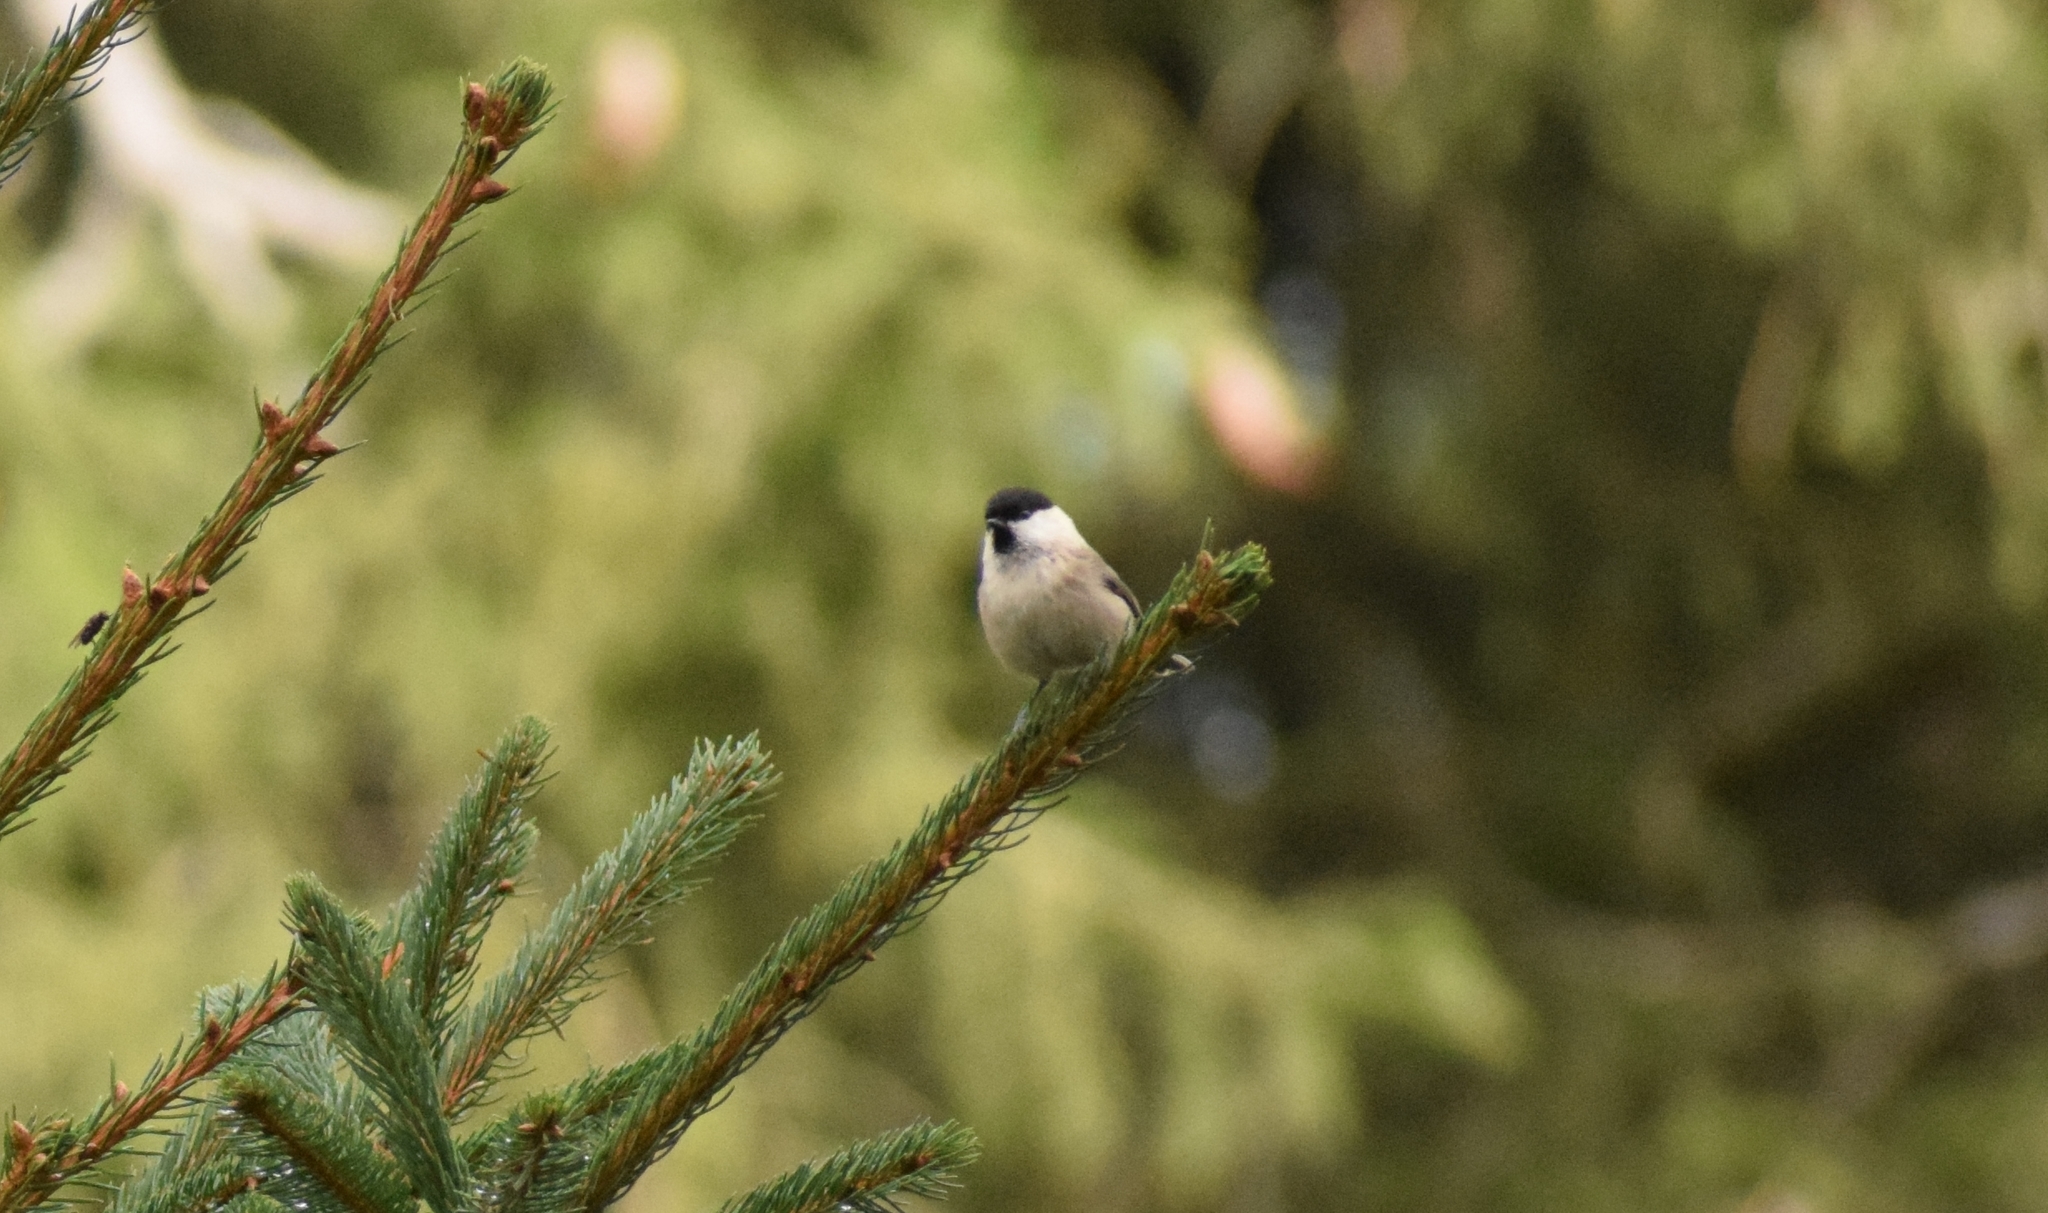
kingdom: Animalia
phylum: Chordata
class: Aves
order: Passeriformes
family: Paridae
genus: Poecile
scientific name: Poecile montanus
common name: Willow tit
